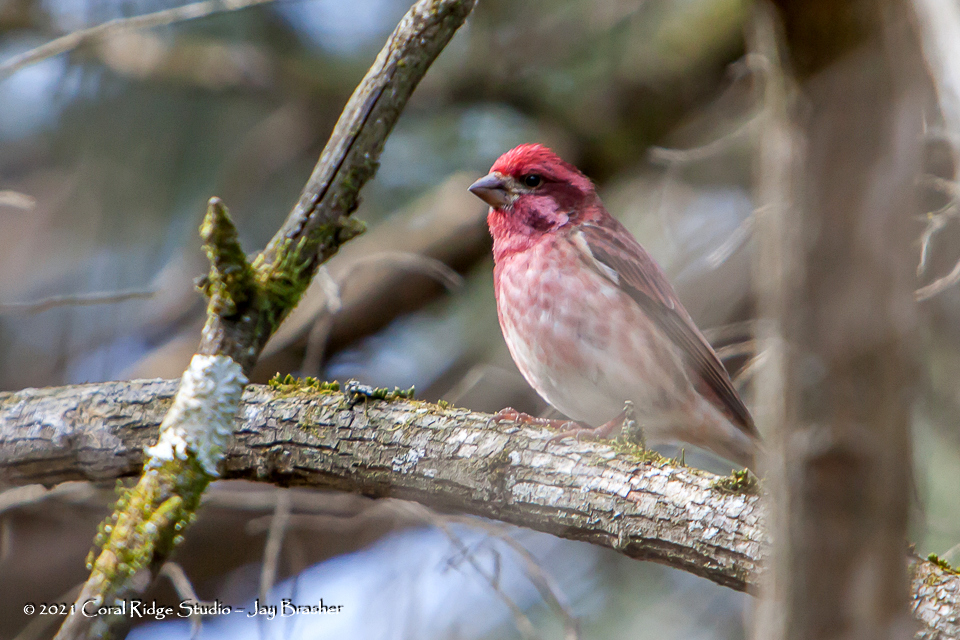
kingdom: Animalia
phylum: Chordata
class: Aves
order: Passeriformes
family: Fringillidae
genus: Haemorhous
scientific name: Haemorhous purpureus
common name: Purple finch
